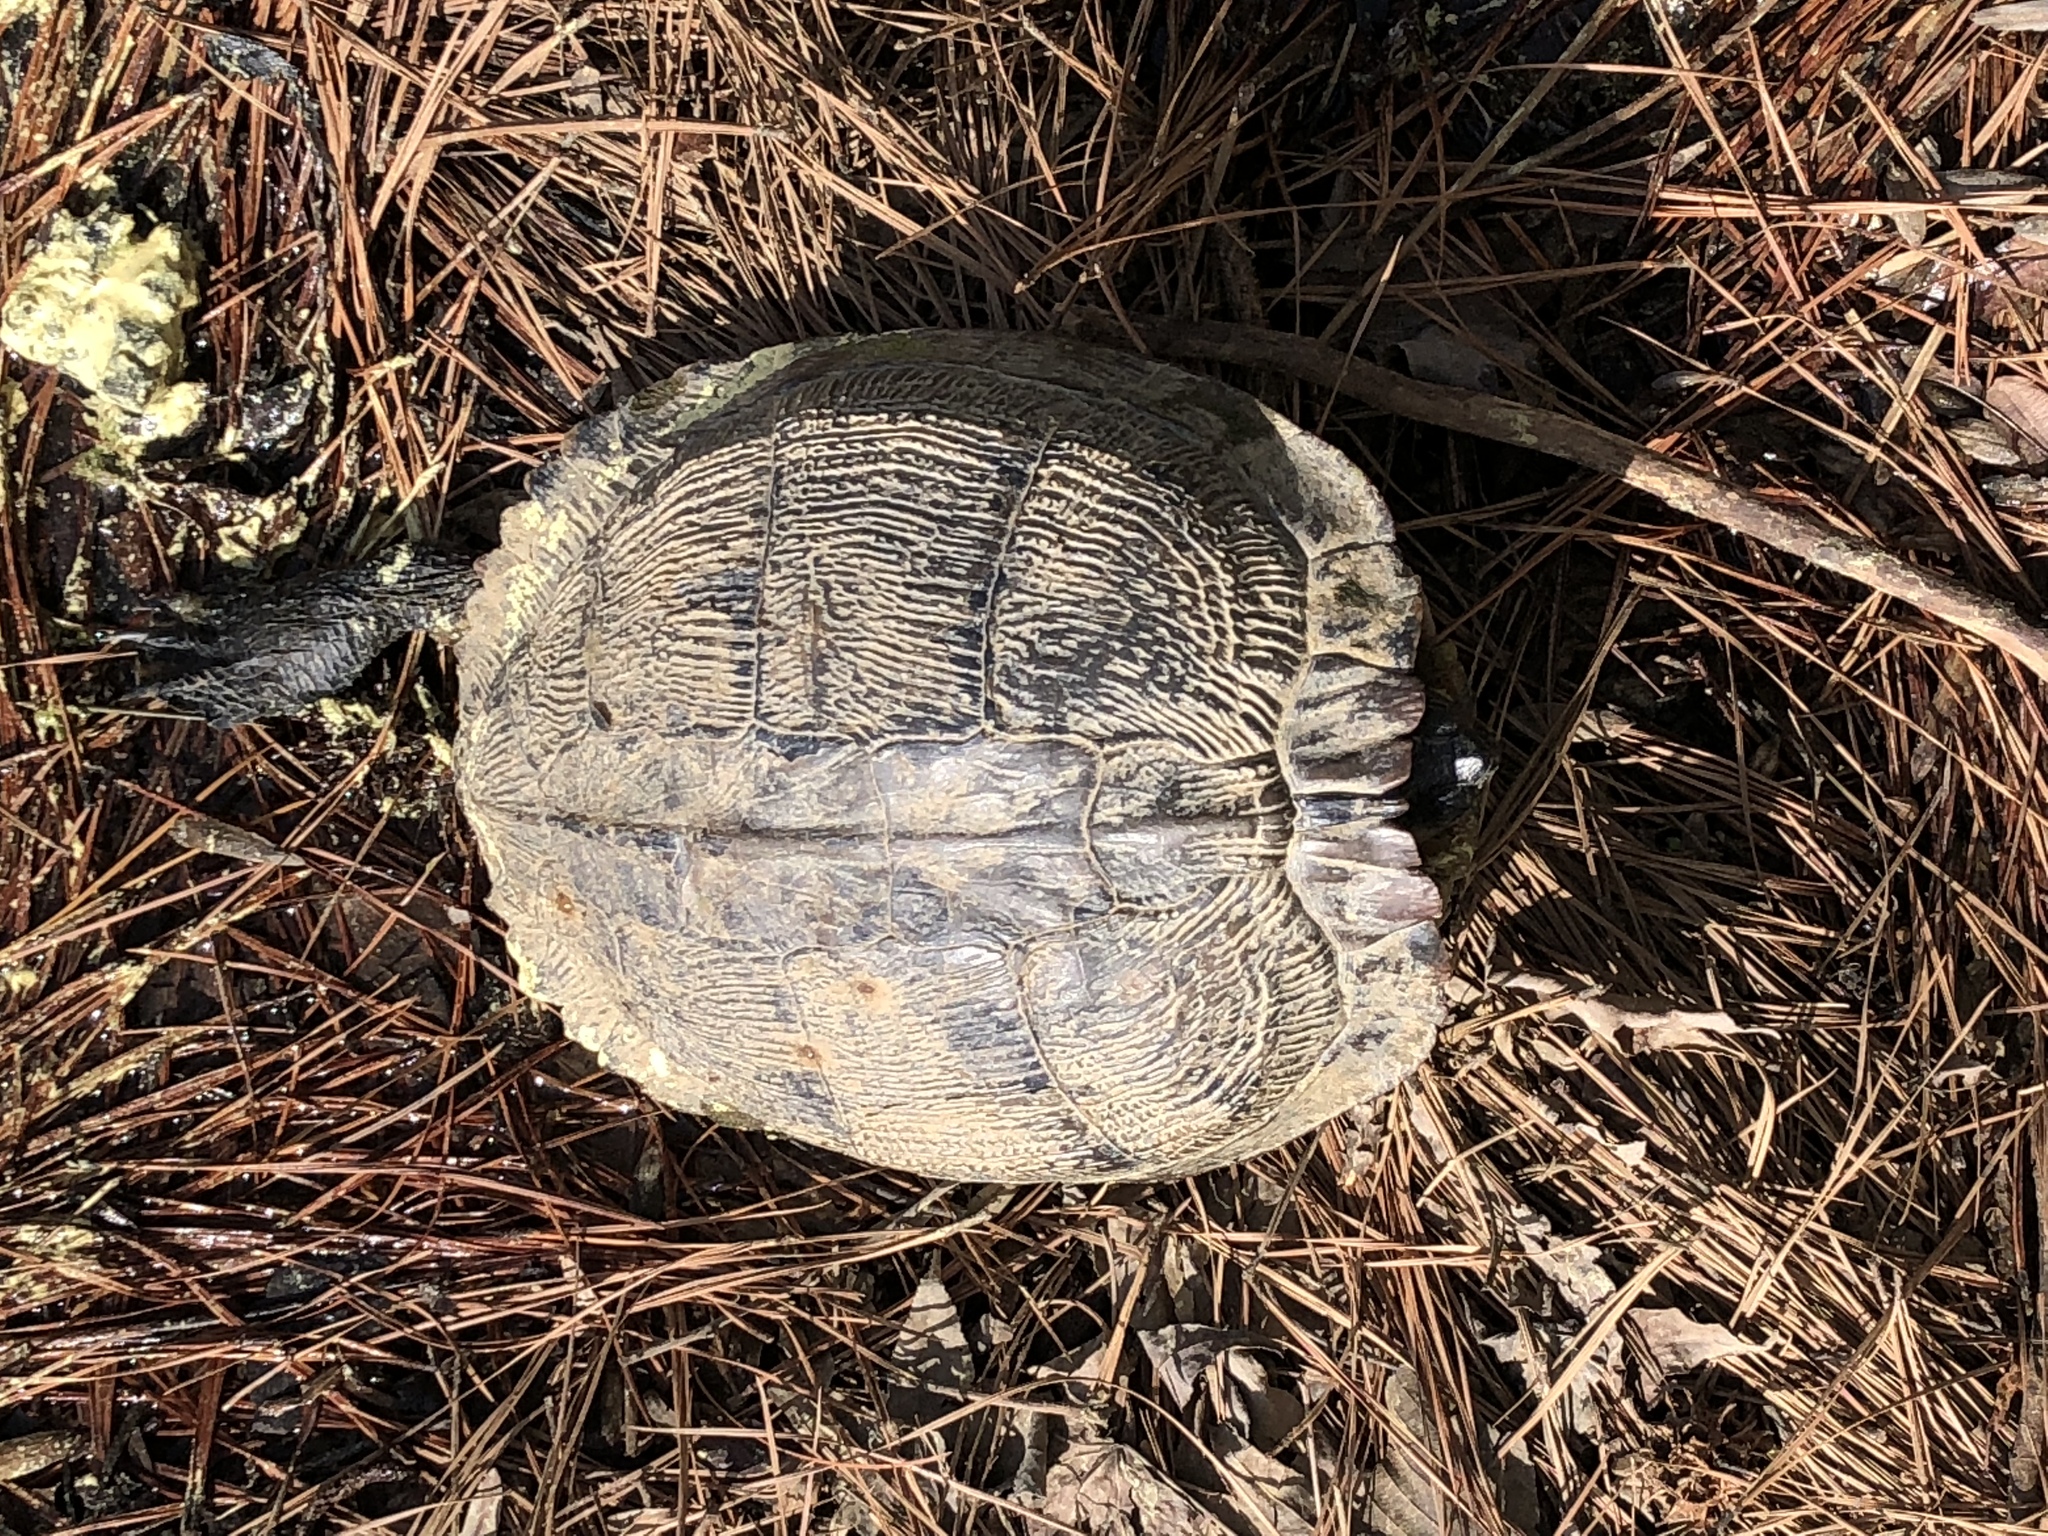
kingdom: Animalia
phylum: Chordata
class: Testudines
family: Emydidae
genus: Trachemys
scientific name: Trachemys scripta
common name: Slider
